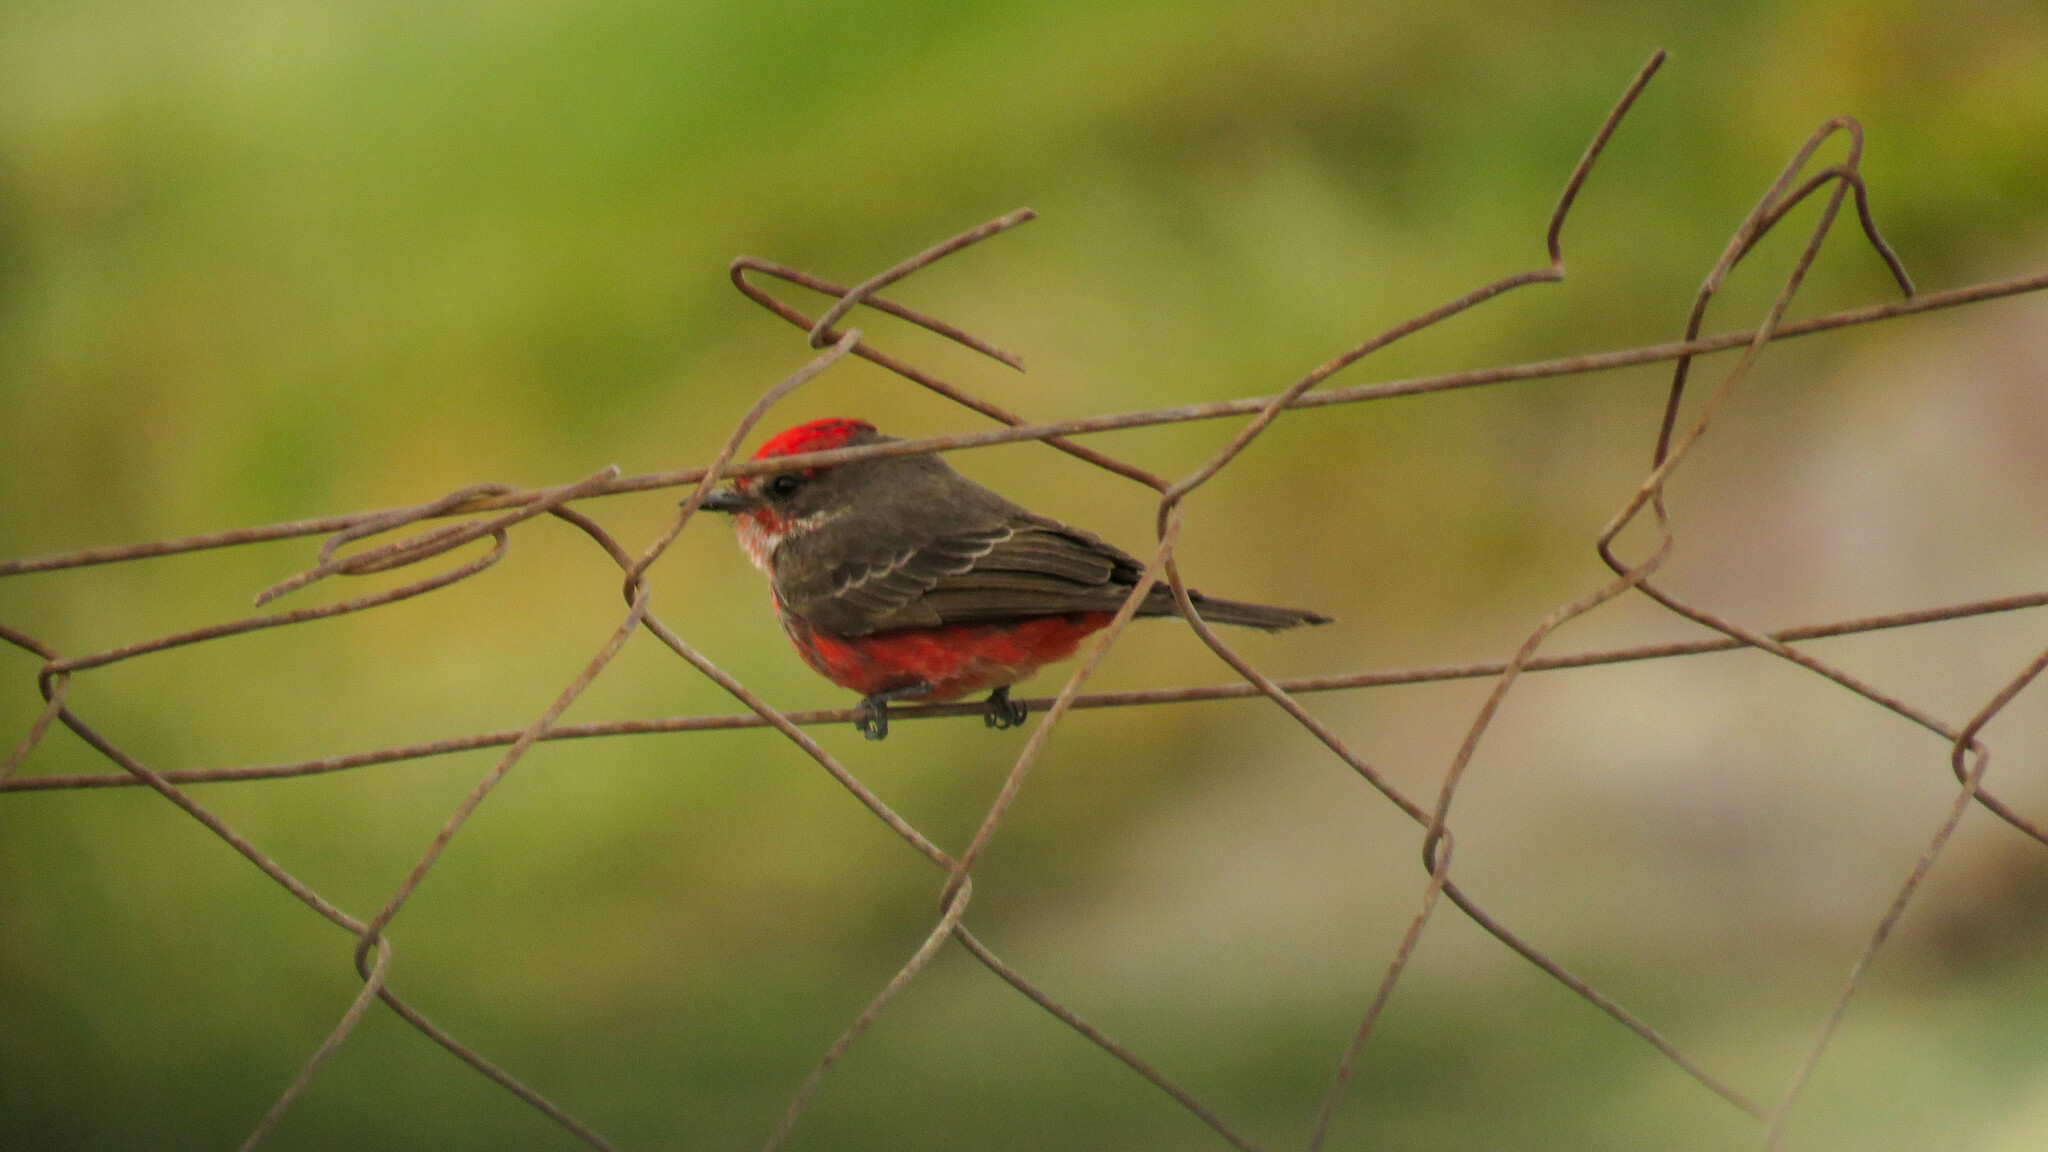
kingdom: Animalia
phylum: Chordata
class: Aves
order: Passeriformes
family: Tyrannidae
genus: Pyrocephalus
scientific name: Pyrocephalus rubinus
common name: Vermilion flycatcher
